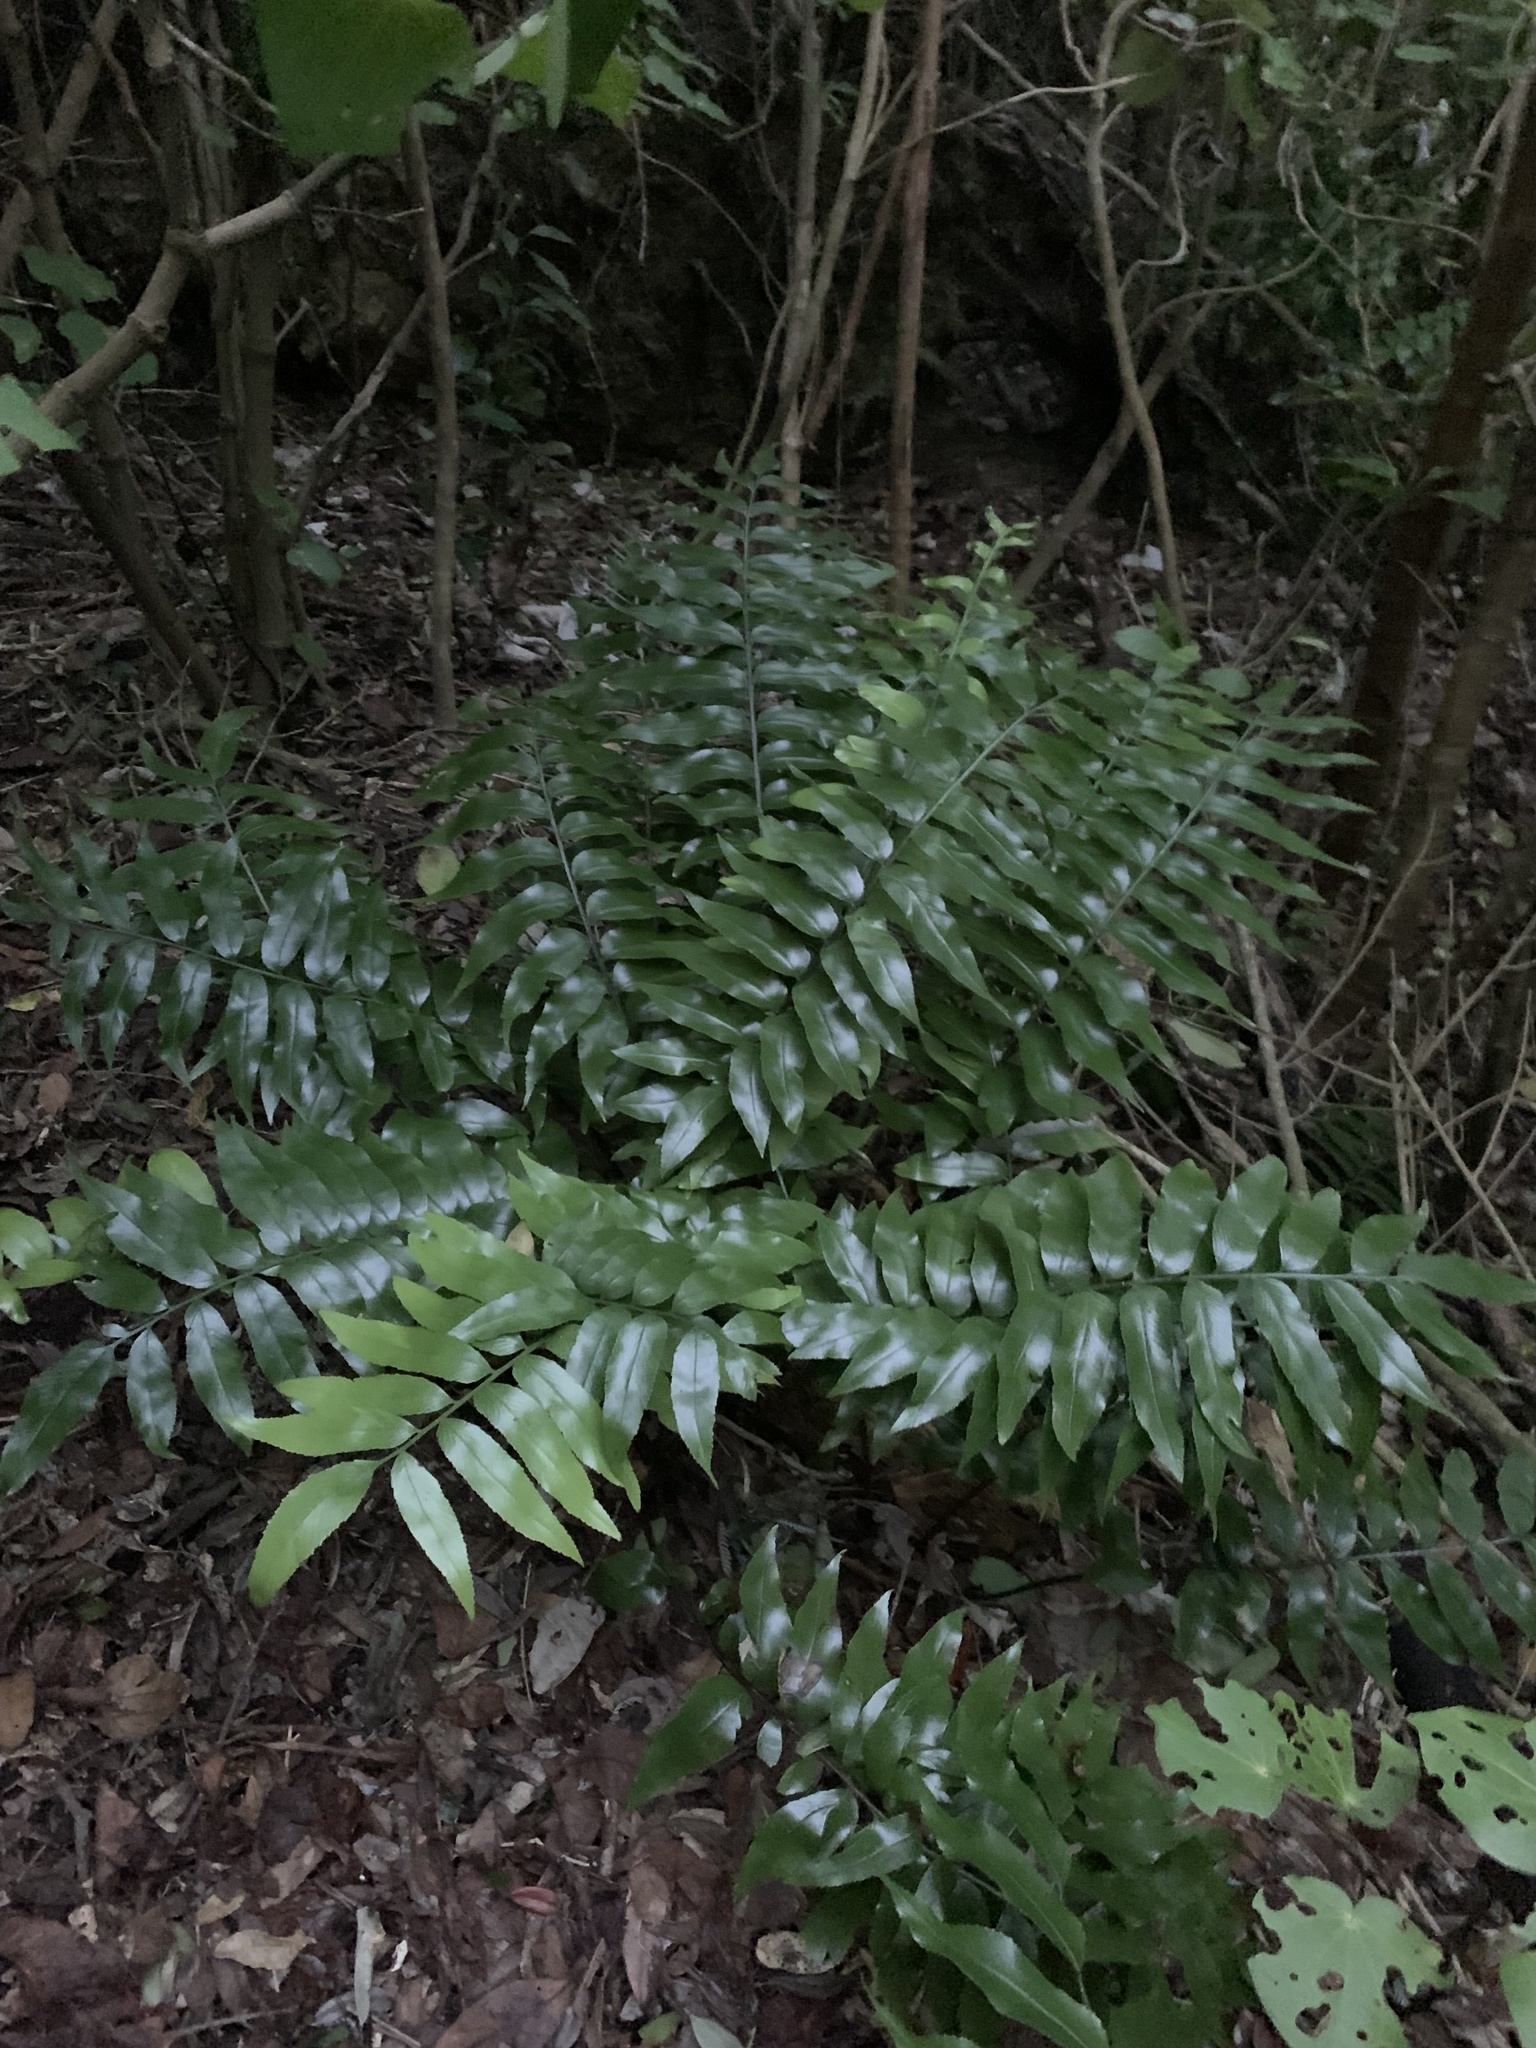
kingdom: Plantae
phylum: Tracheophyta
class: Polypodiopsida
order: Polypodiales
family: Aspleniaceae
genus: Asplenium
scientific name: Asplenium oblongifolium
